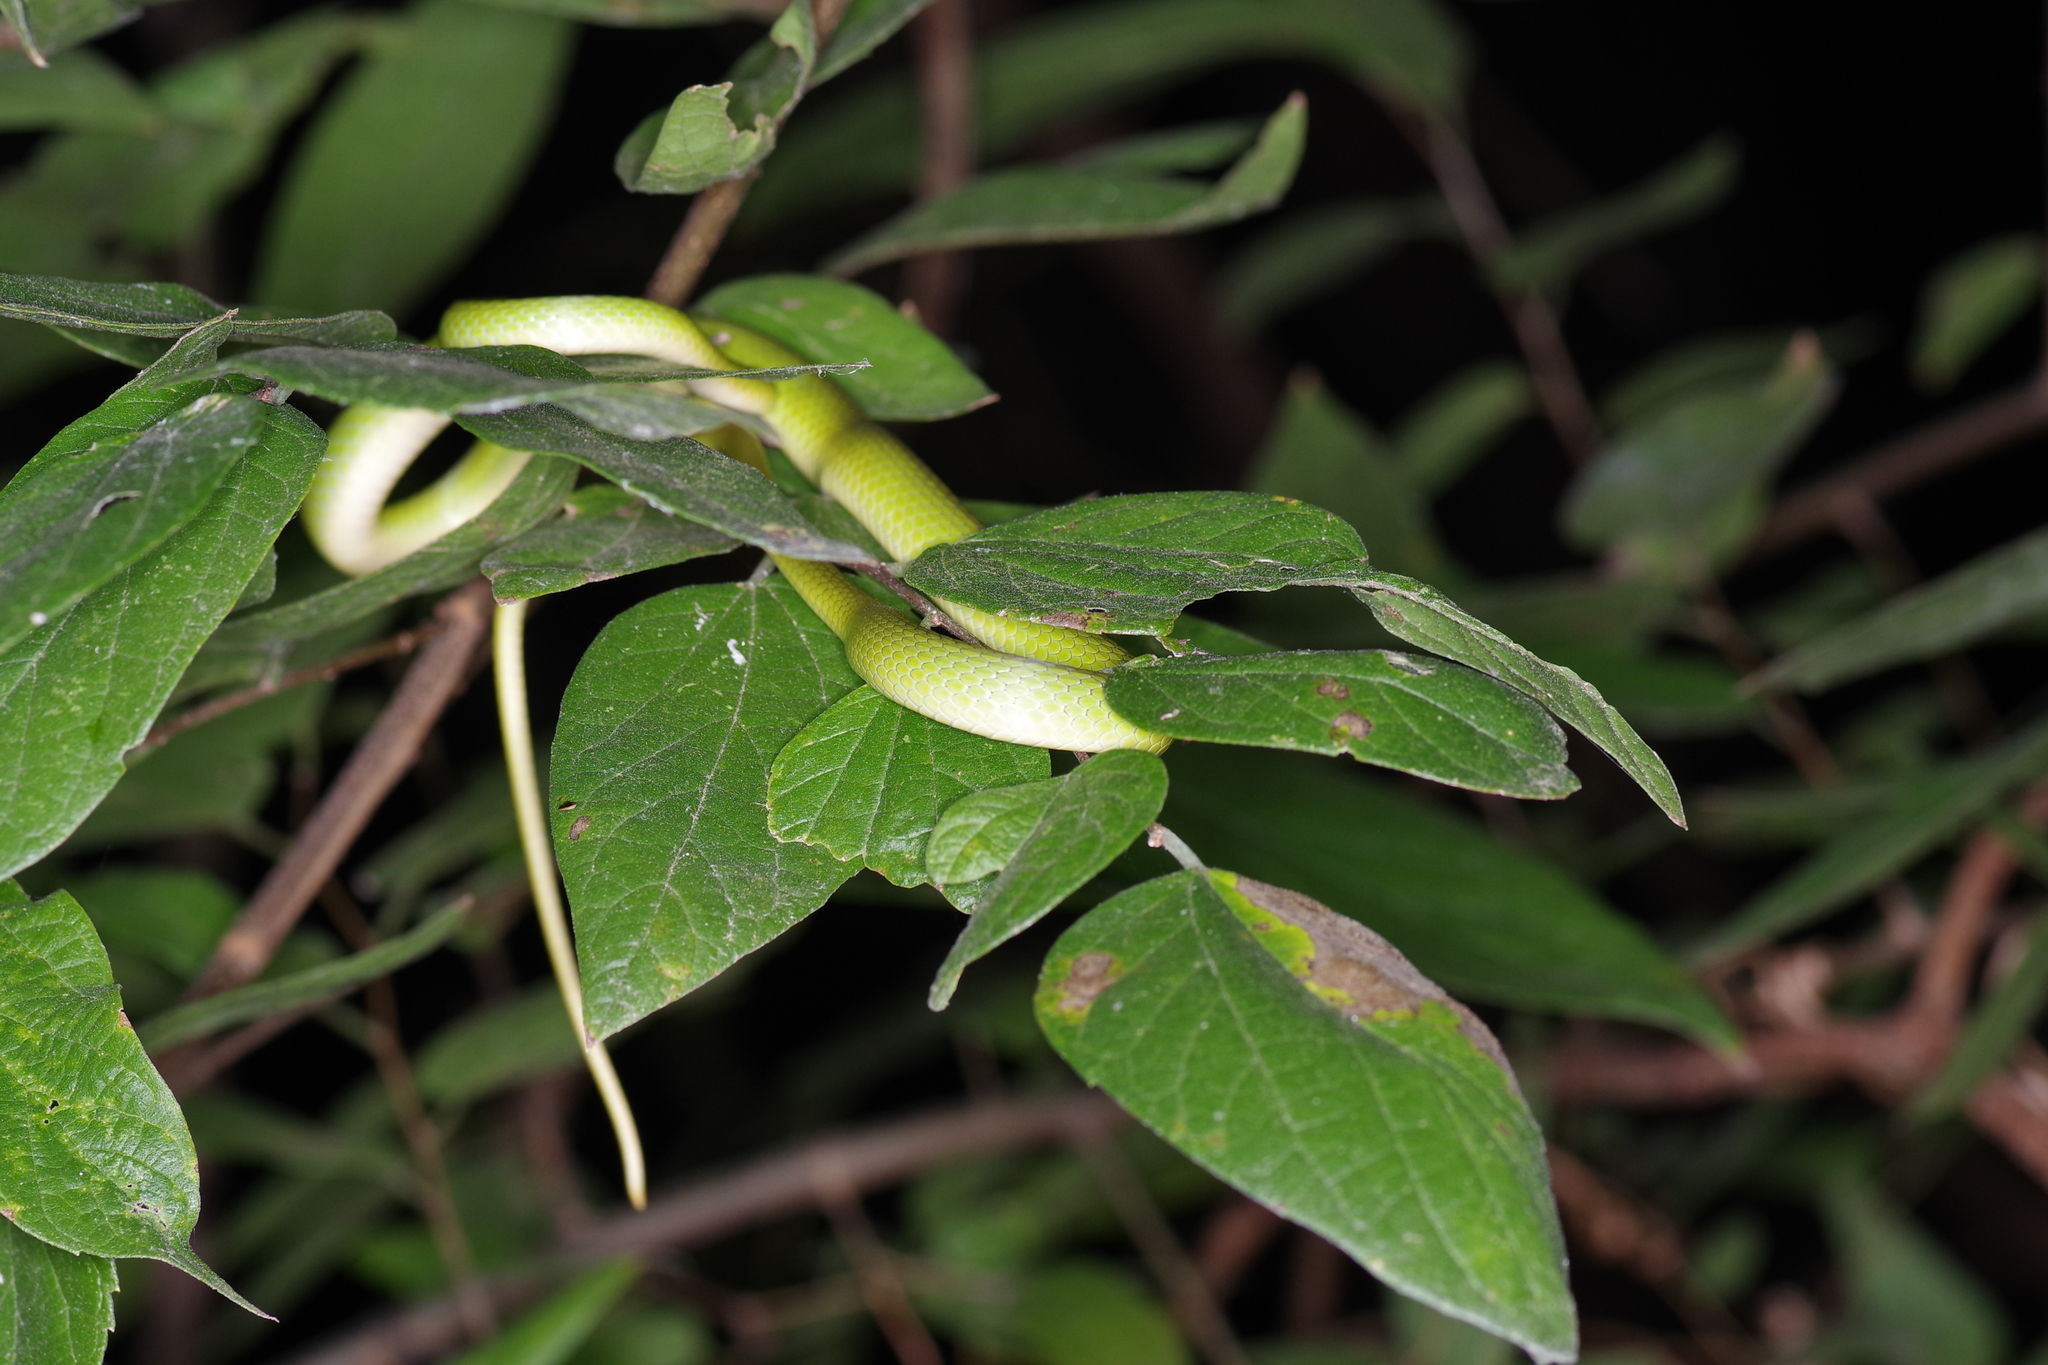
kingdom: Animalia
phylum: Chordata
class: Squamata
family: Colubridae
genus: Opheodrys
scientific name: Opheodrys aestivus
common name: Rough greensnake
